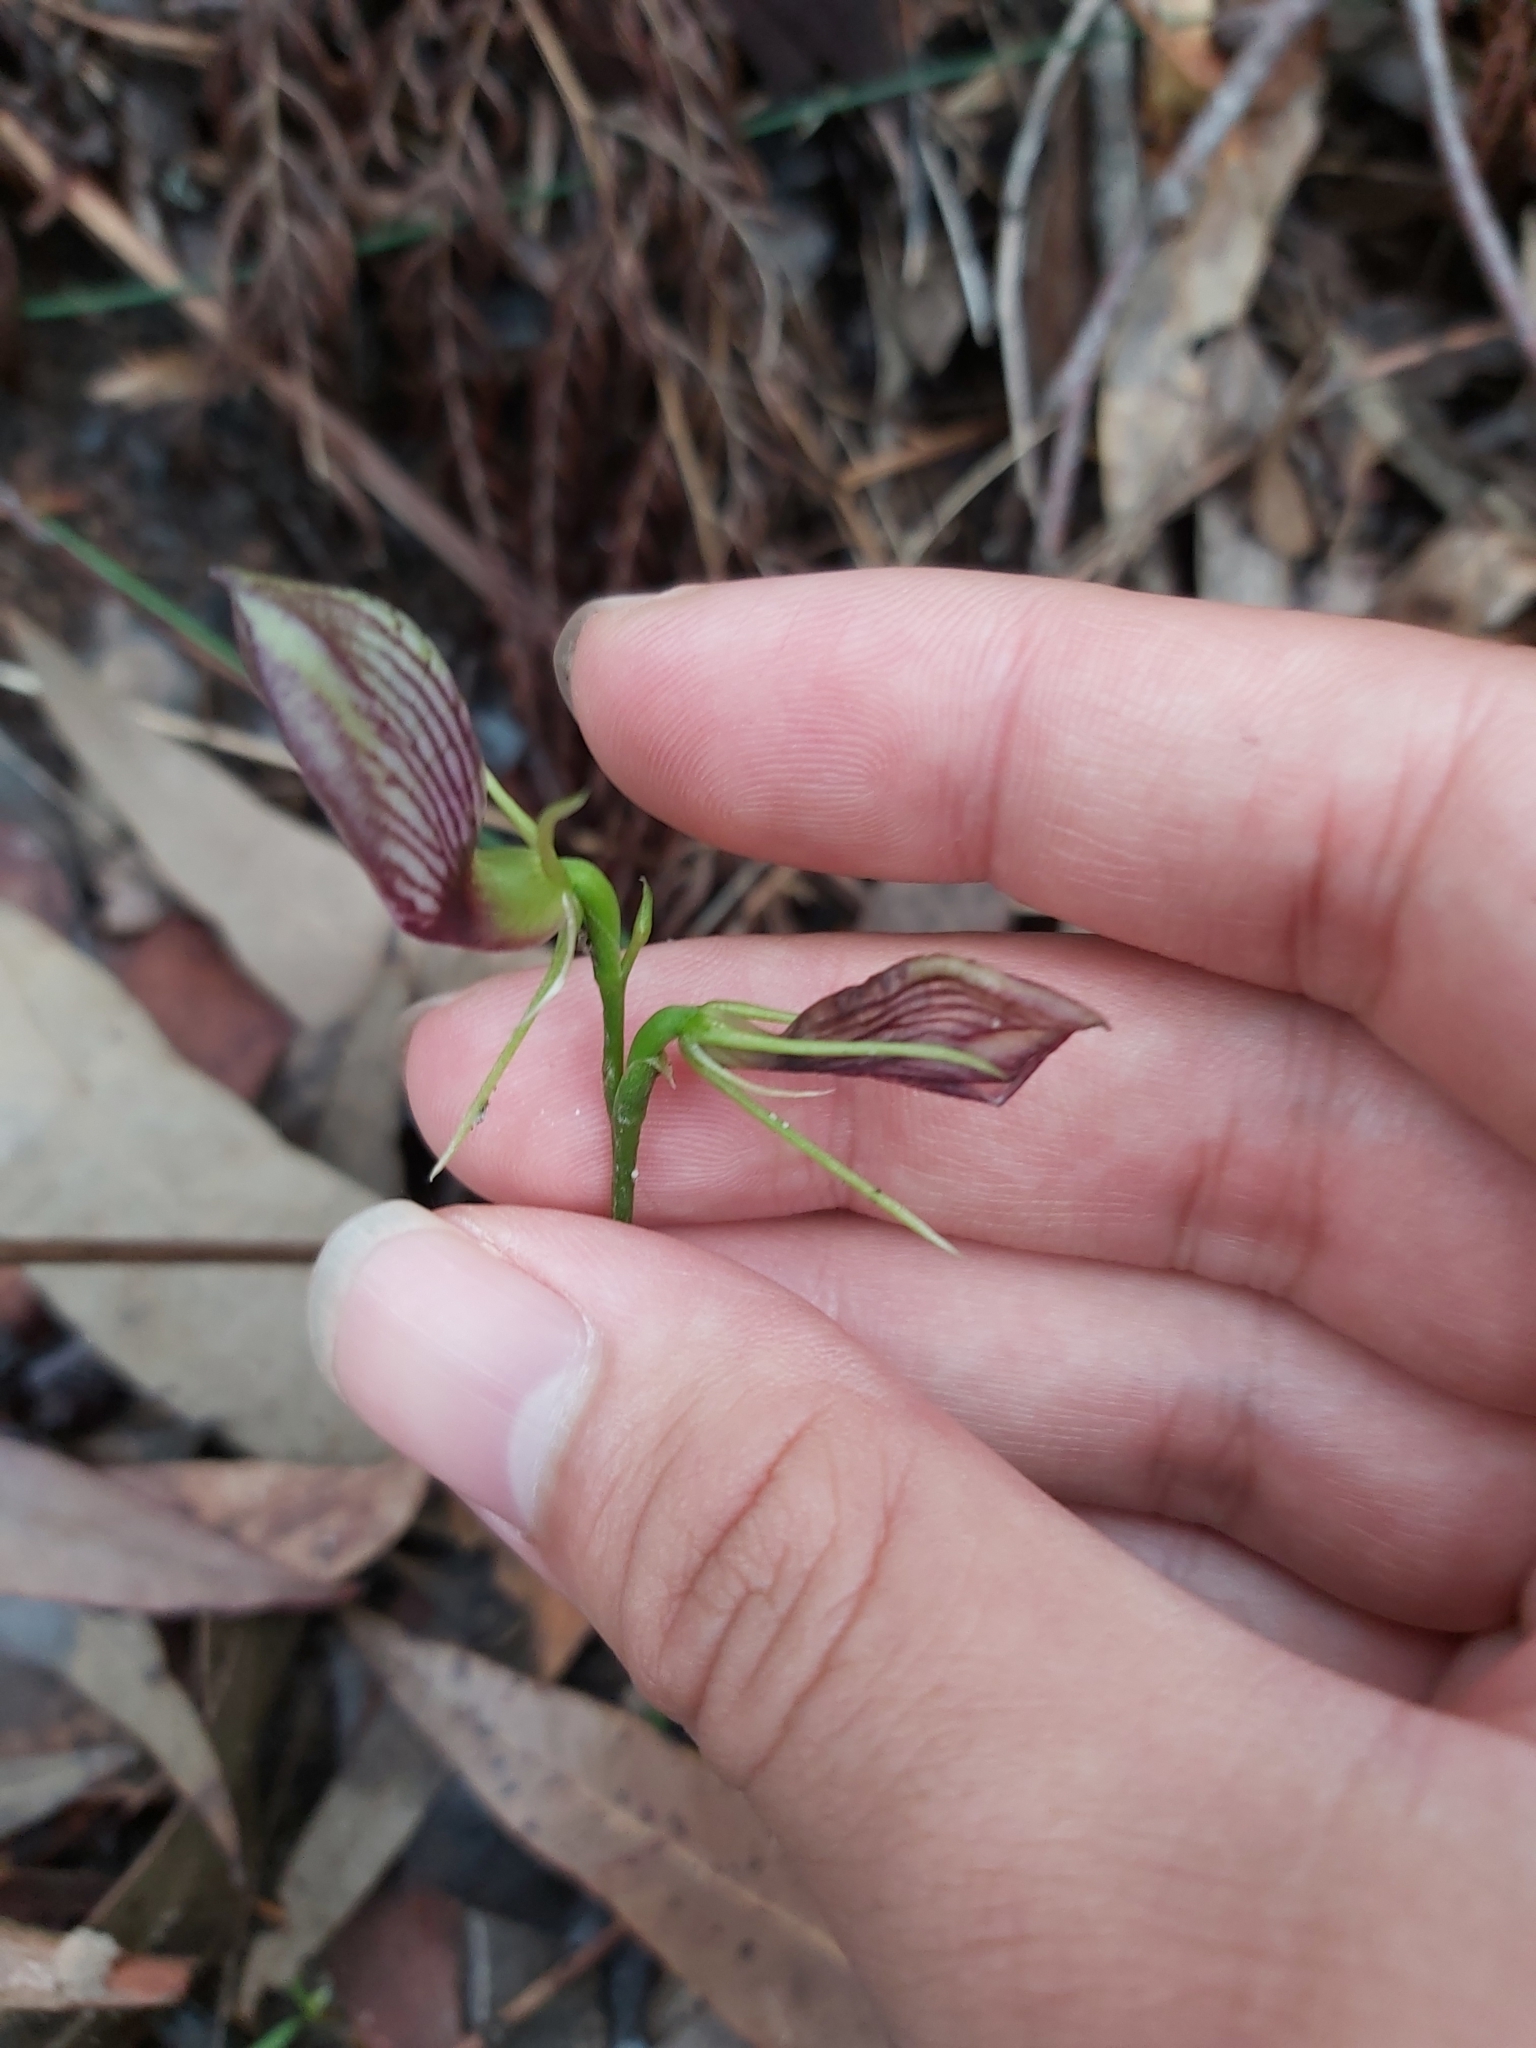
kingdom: Plantae
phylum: Tracheophyta
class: Liliopsida
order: Asparagales
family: Orchidaceae
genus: Cryptostylis
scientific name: Cryptostylis erecta
